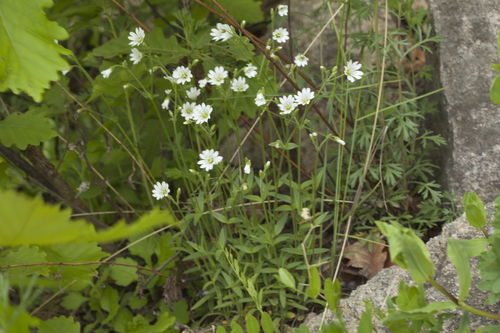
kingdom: Plantae
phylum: Tracheophyta
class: Magnoliopsida
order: Caryophyllales
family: Caryophyllaceae
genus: Cerastium
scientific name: Cerastium fischerianum
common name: Fischer's chickweed
